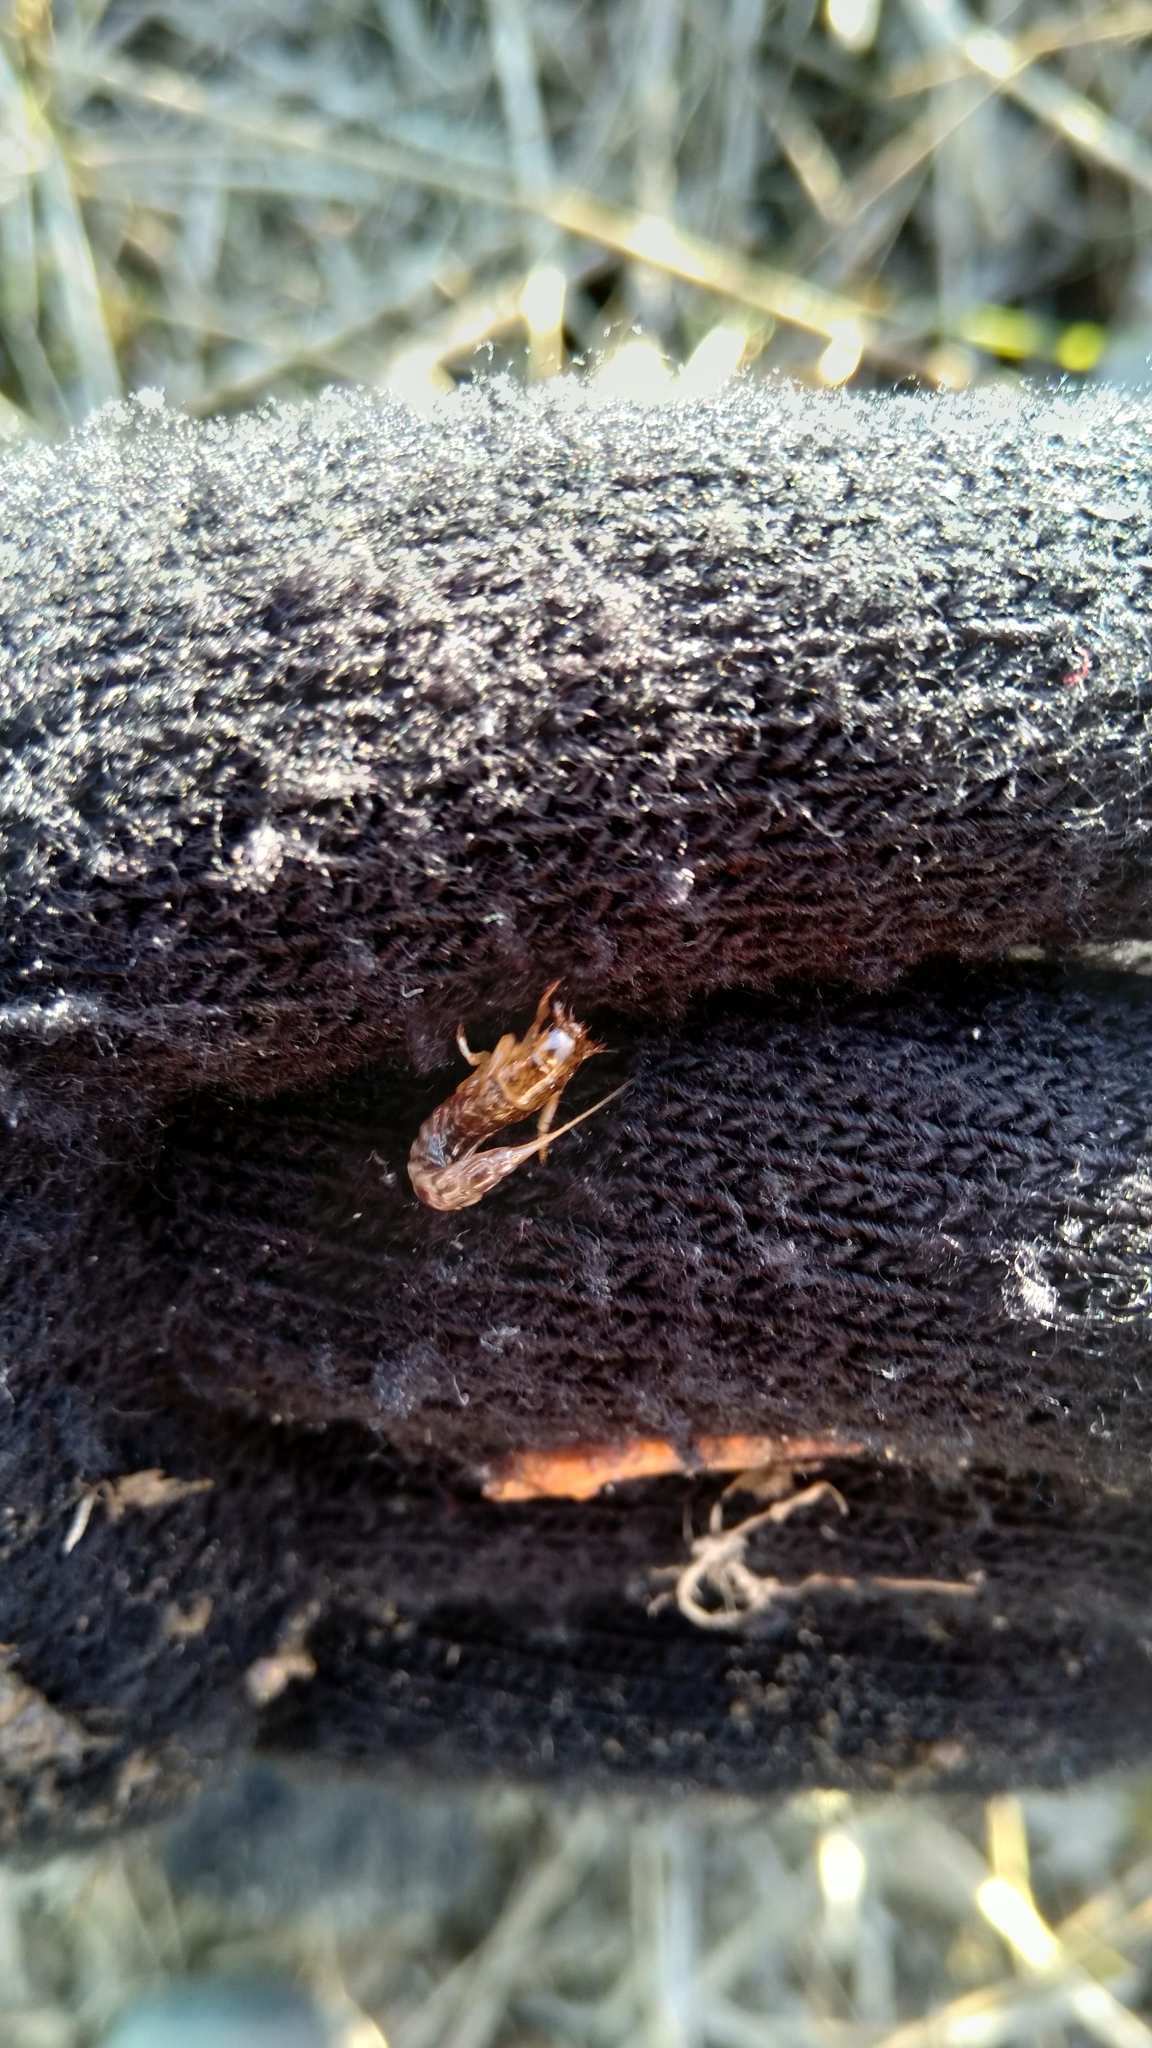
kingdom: Animalia
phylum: Arthropoda
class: Insecta
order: Megaloptera
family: Sialidae
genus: Sialis
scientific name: Sialis
